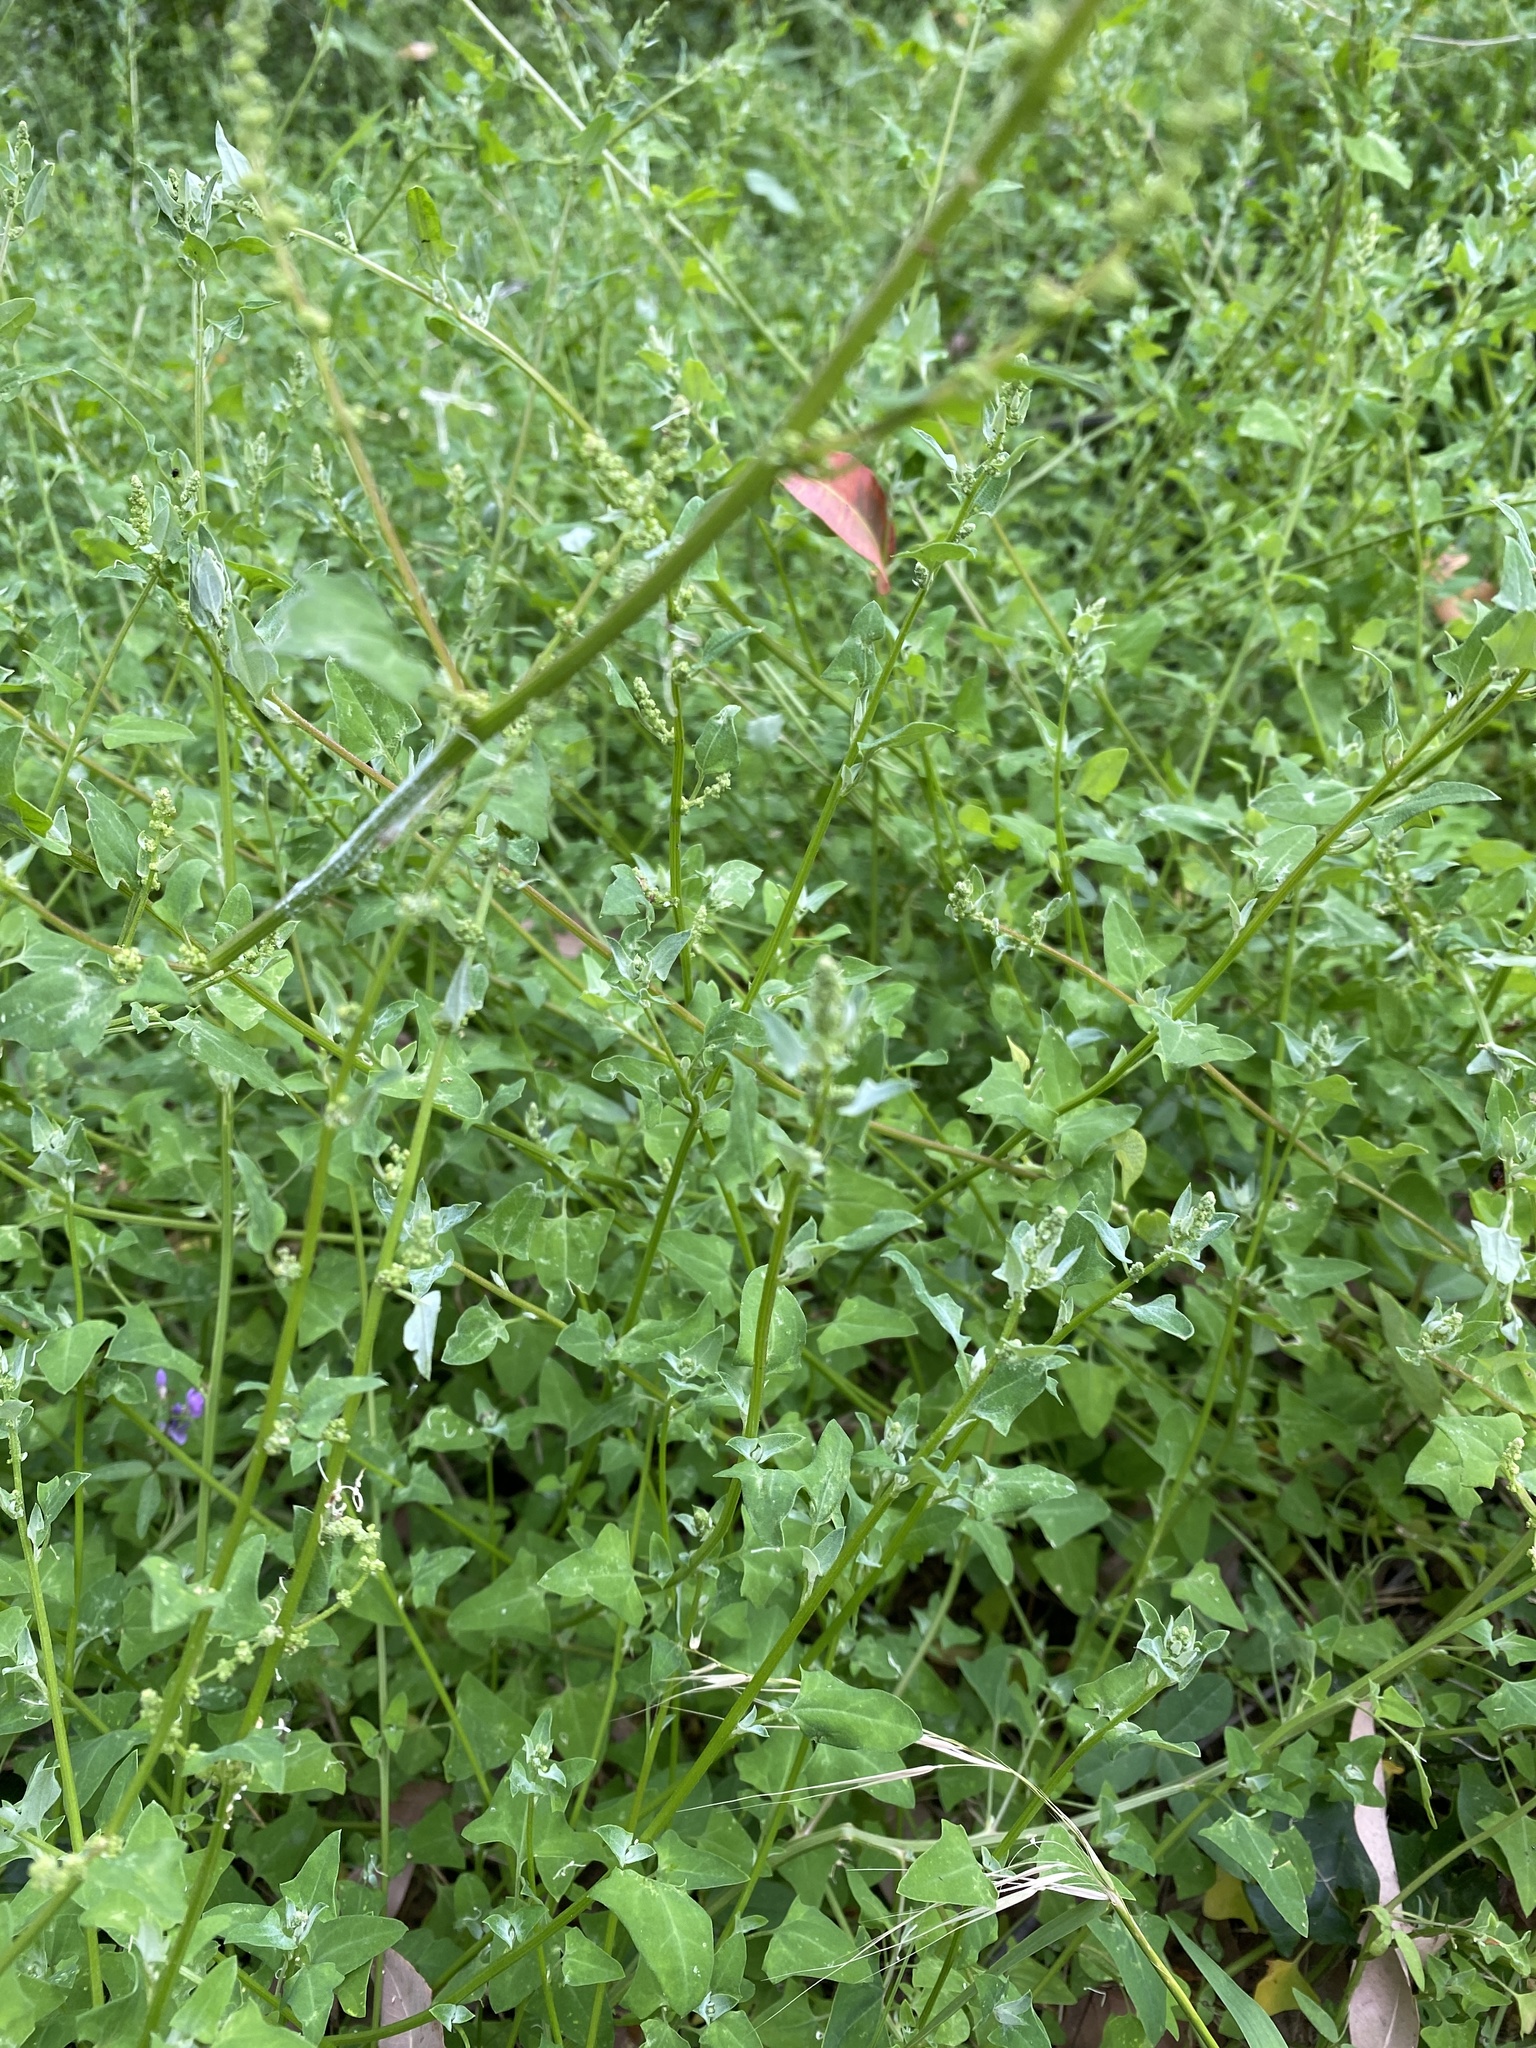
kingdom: Plantae
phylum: Tracheophyta
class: Magnoliopsida
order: Caryophyllales
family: Amaranthaceae
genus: Chenopodium
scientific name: Chenopodium trigonon
